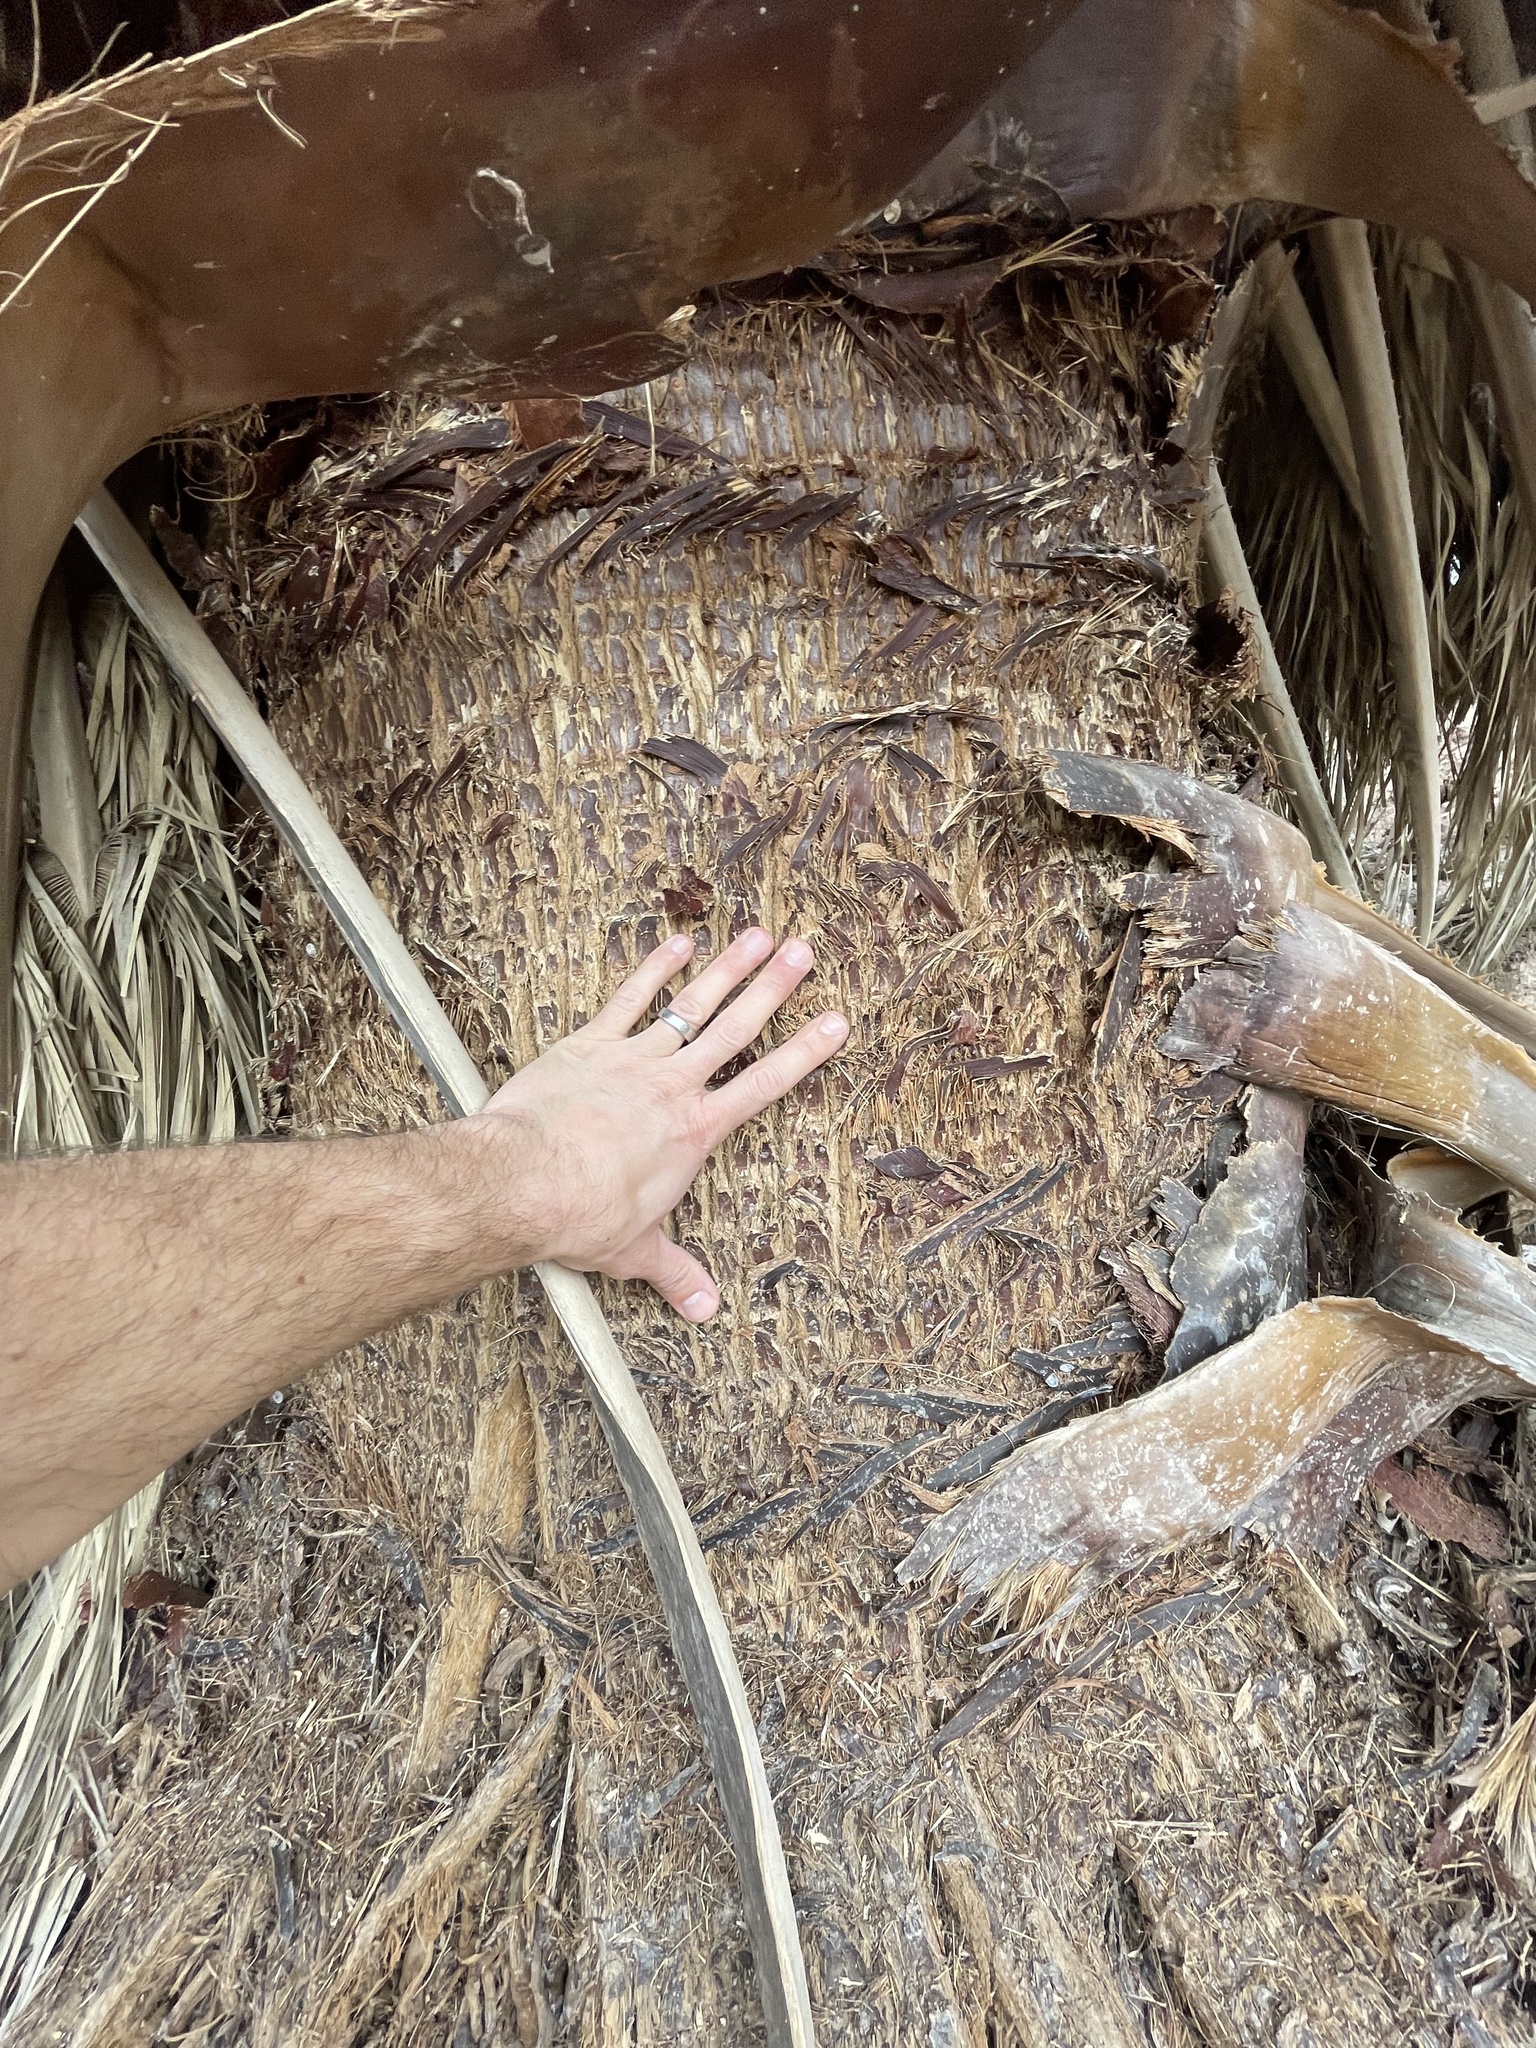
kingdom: Plantae
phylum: Tracheophyta
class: Liliopsida
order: Arecales
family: Arecaceae
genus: Washingtonia
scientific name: Washingtonia filifera
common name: California fan palm
